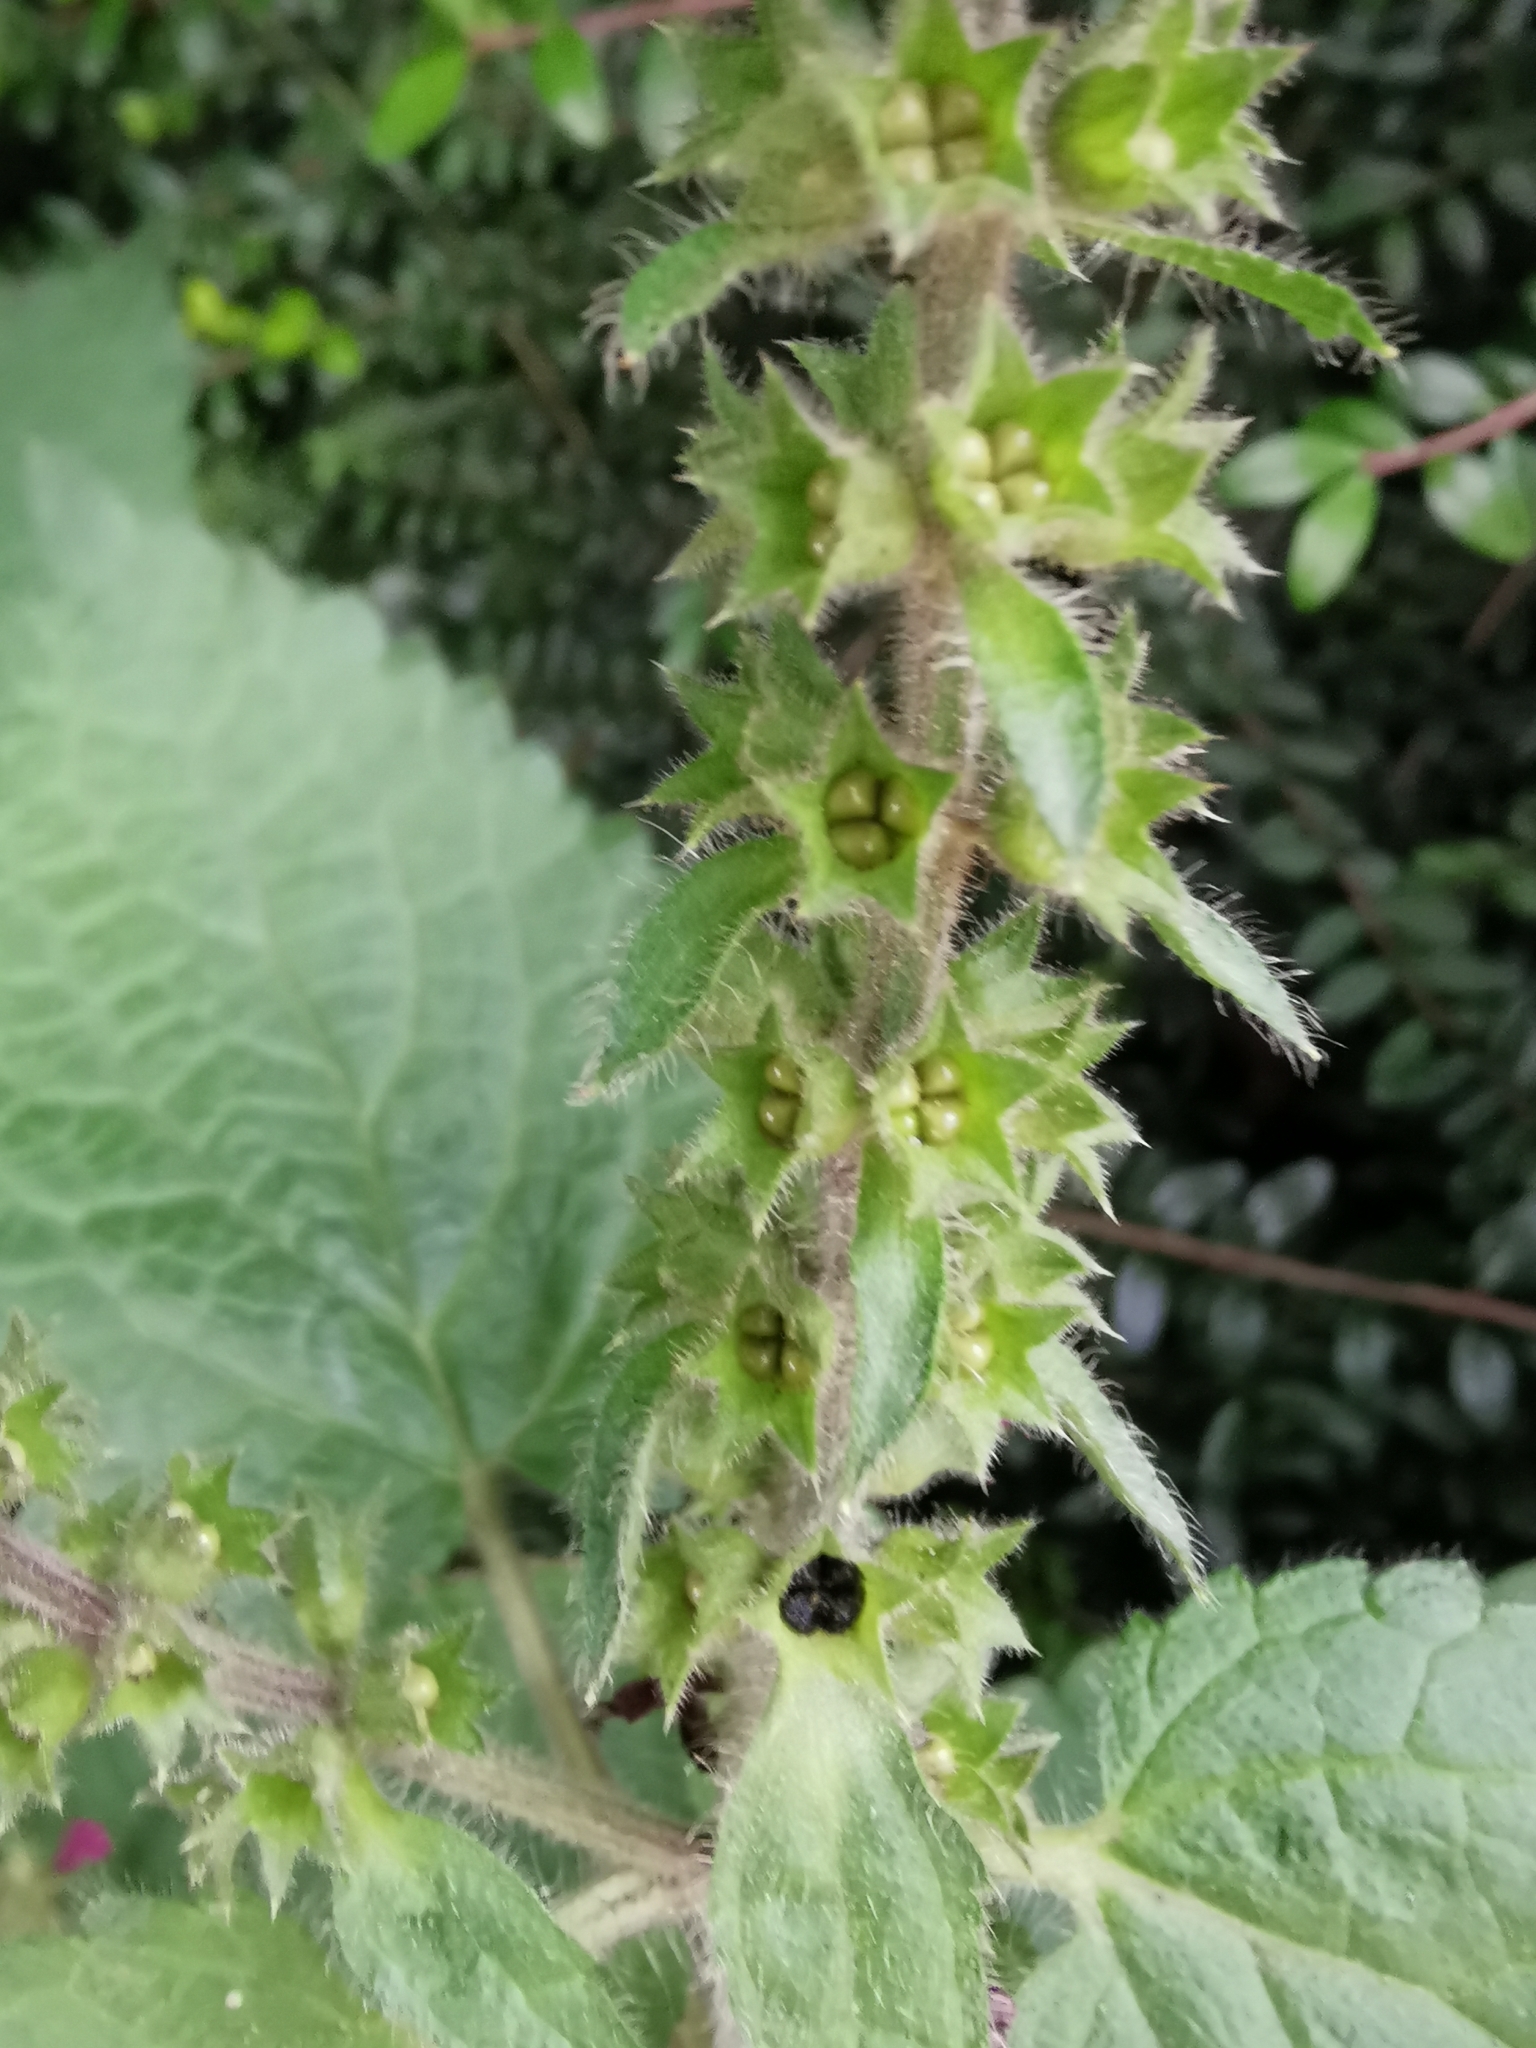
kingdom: Plantae
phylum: Tracheophyta
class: Magnoliopsida
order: Lamiales
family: Lamiaceae
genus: Stachys
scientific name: Stachys sylvatica
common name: Hedge woundwort
